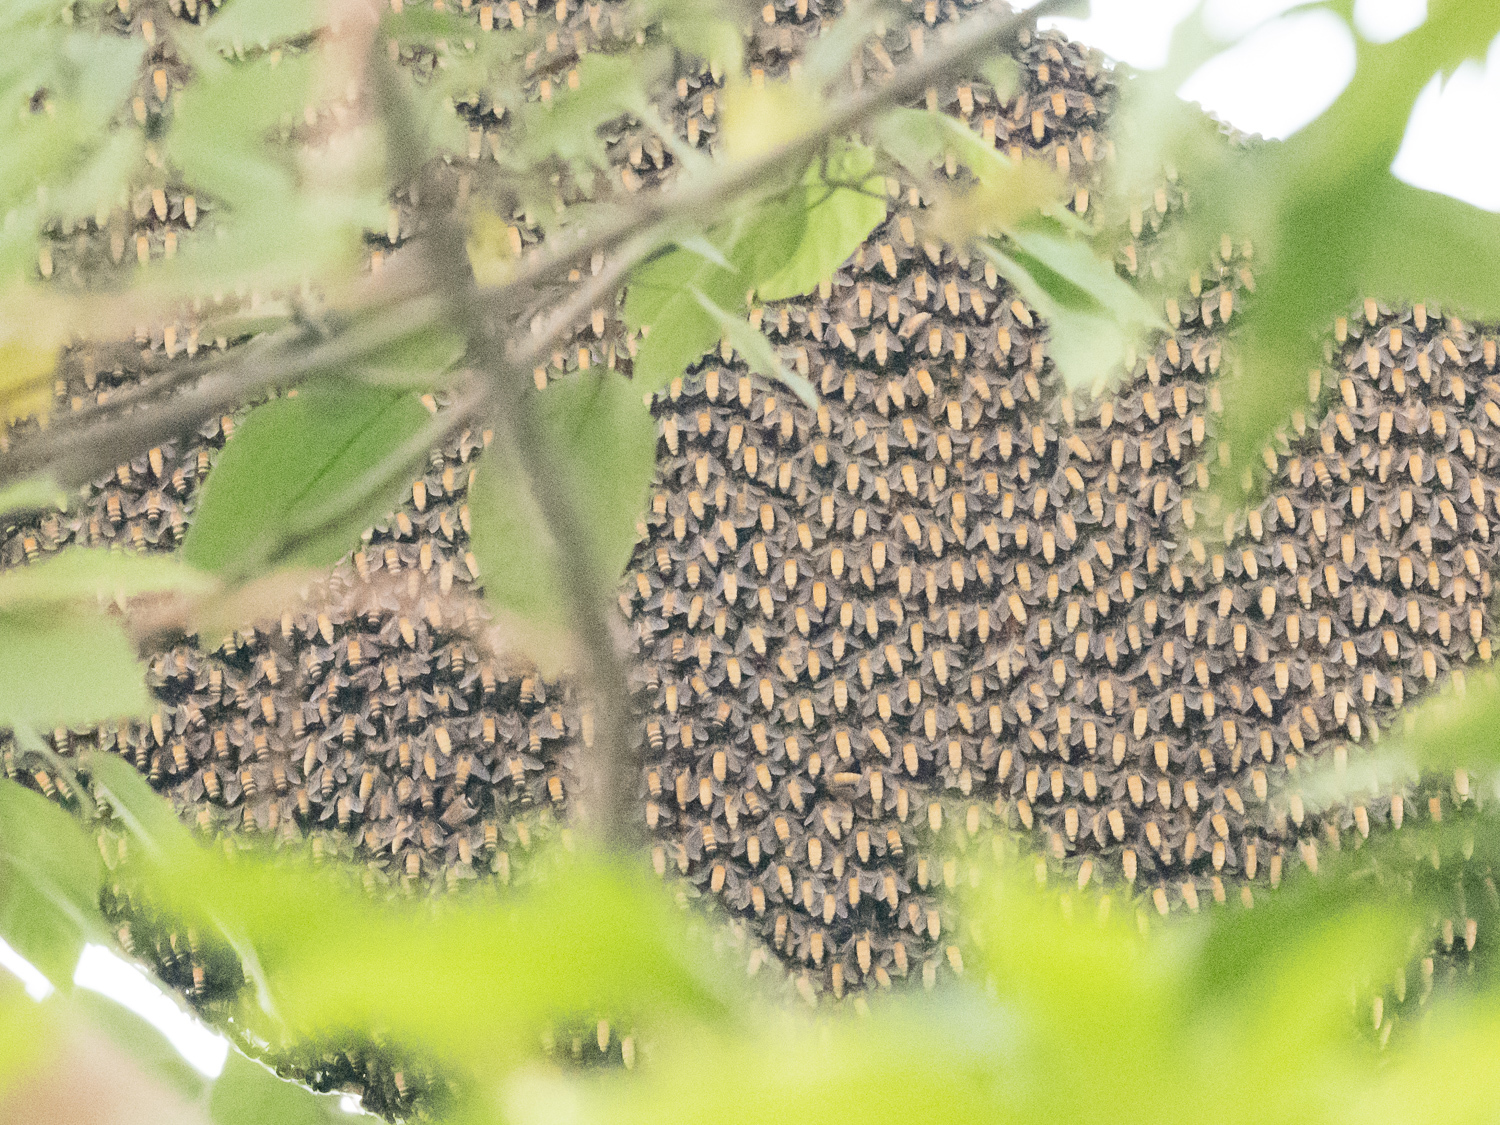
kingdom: Animalia
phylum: Arthropoda
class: Insecta
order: Hymenoptera
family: Apidae
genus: Apis
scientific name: Apis dorsata
